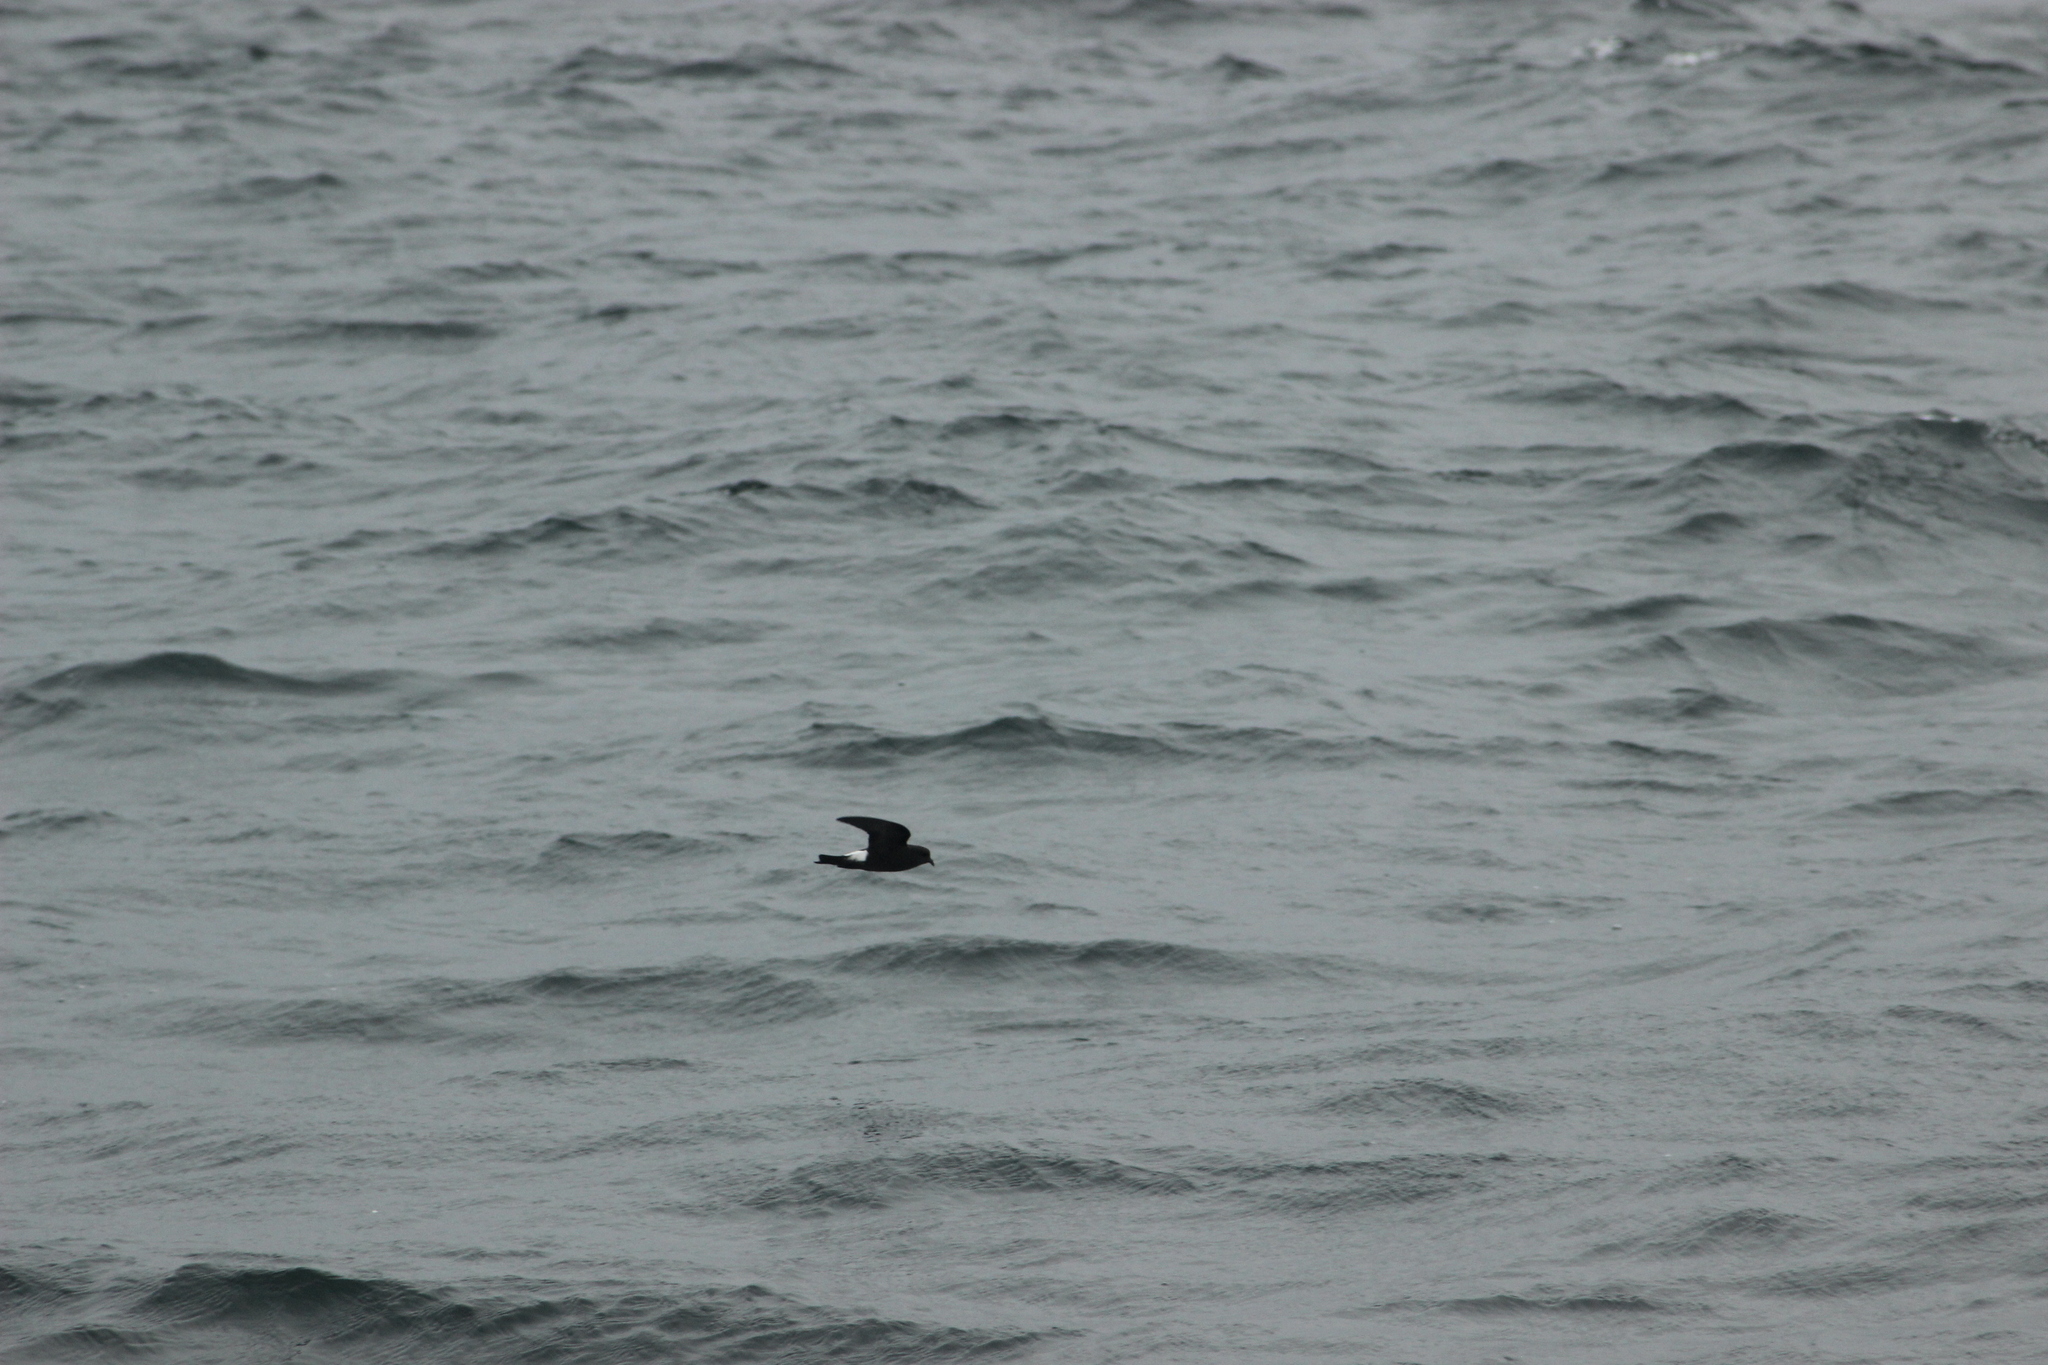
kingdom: Animalia
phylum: Chordata
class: Aves
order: Procellariiformes
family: Hydrobatidae
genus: Oceanites
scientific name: Oceanites oceanicus
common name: Wilson's storm petrel
